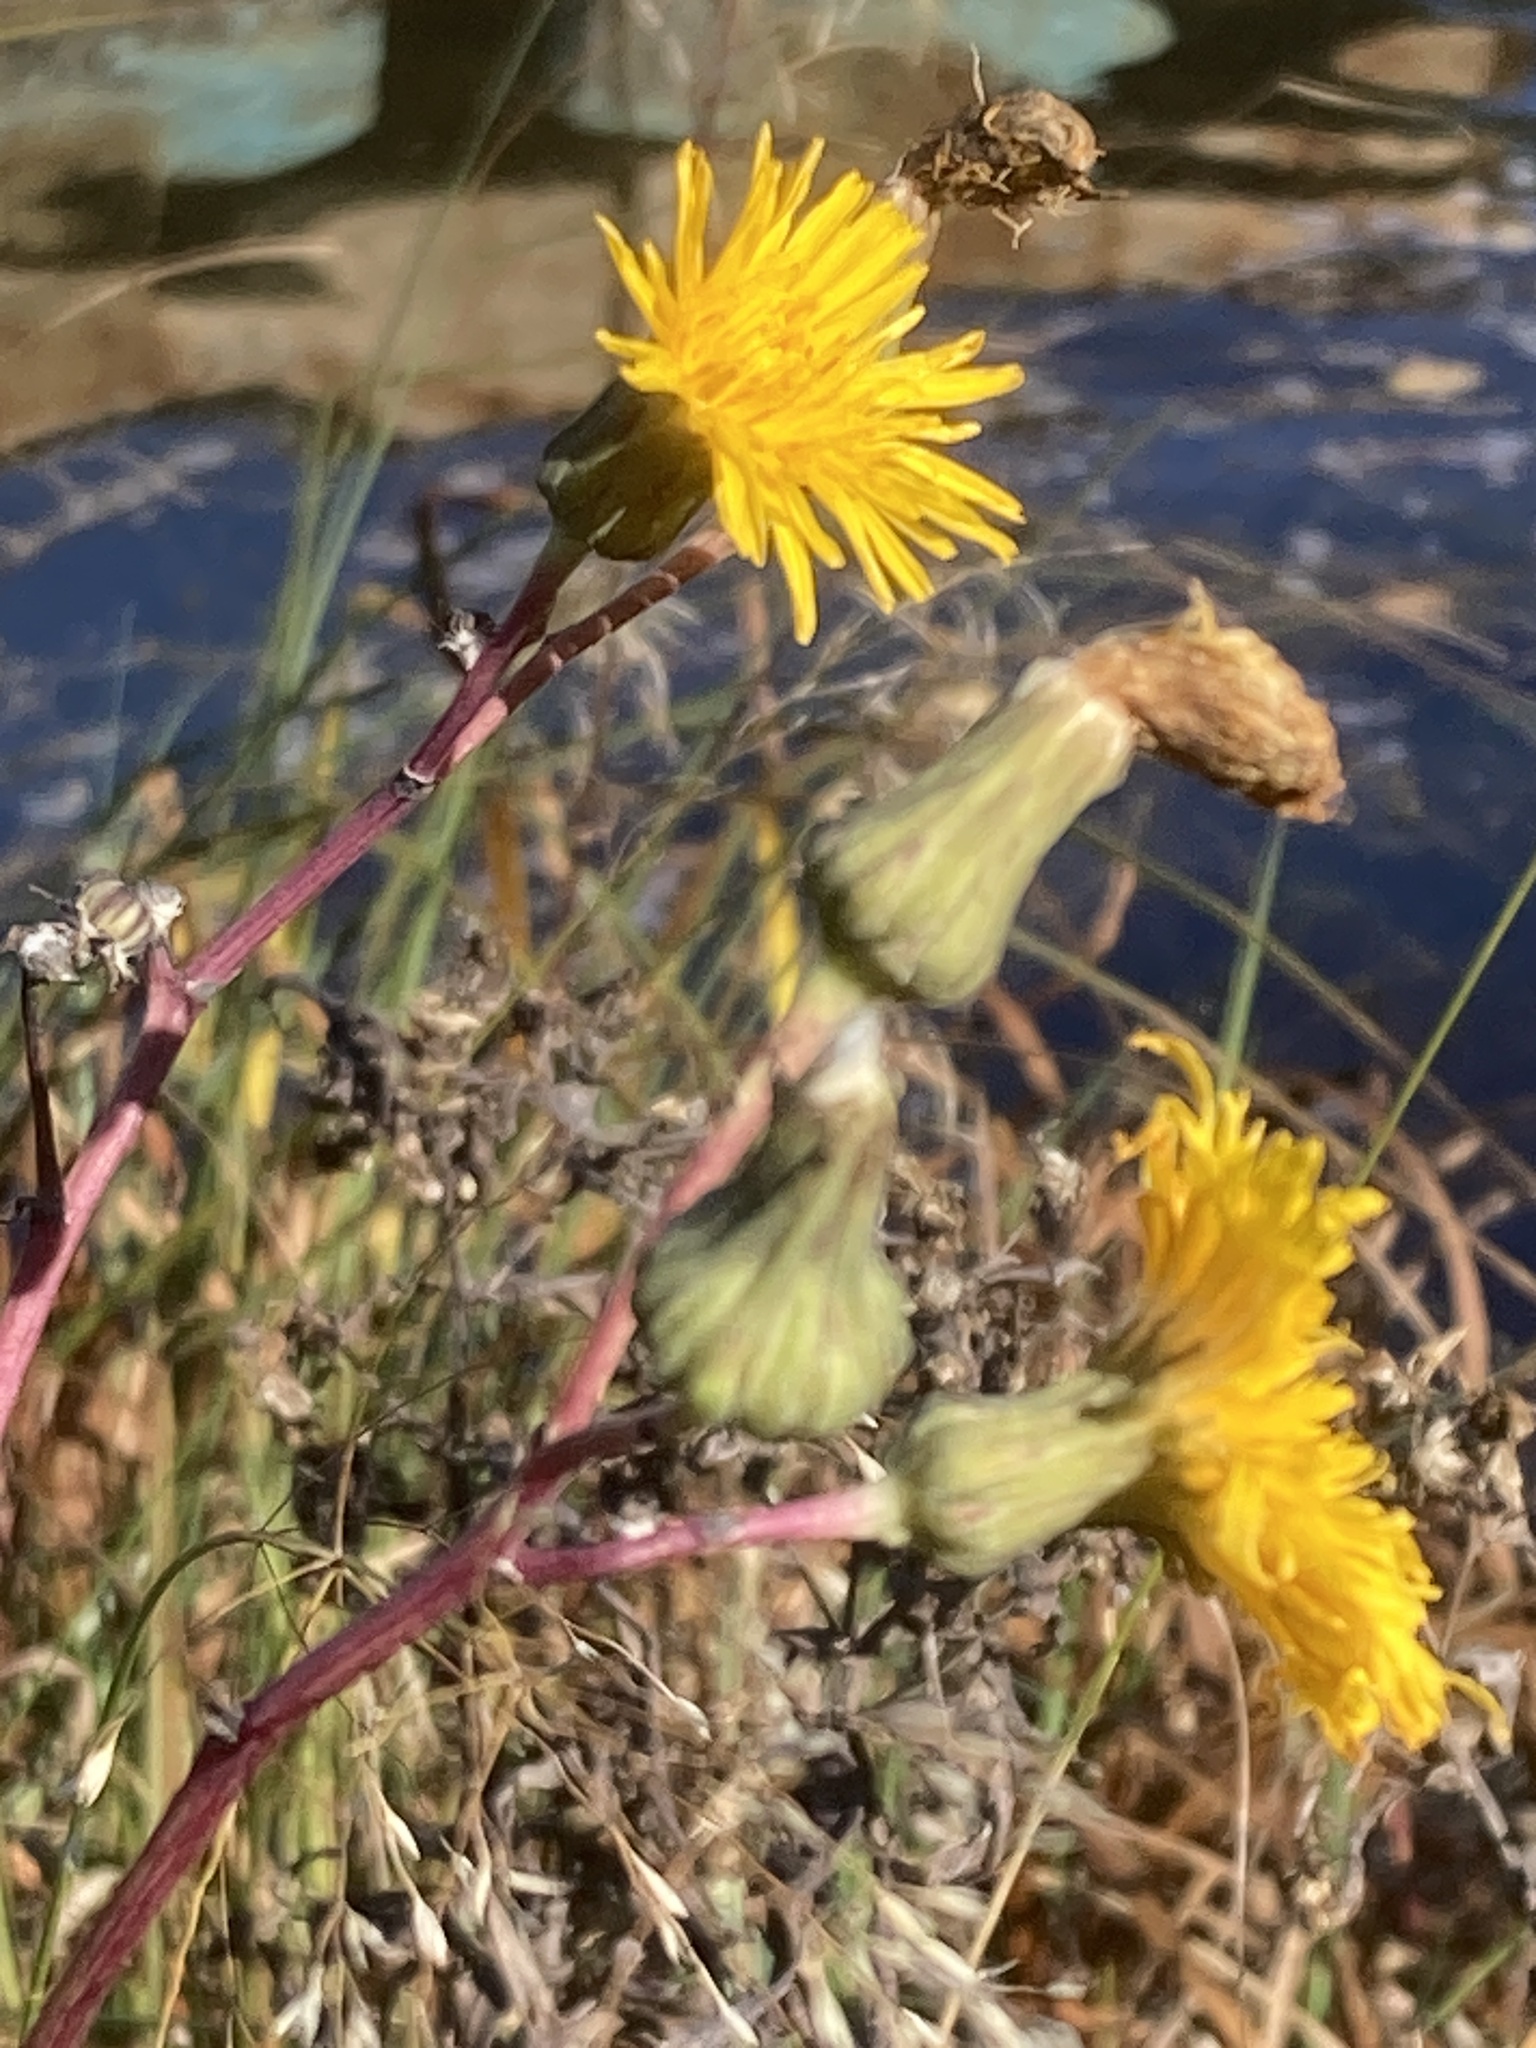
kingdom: Plantae
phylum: Tracheophyta
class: Magnoliopsida
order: Asterales
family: Asteraceae
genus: Sonchus
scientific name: Sonchus arvensis
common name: Perennial sow-thistle
